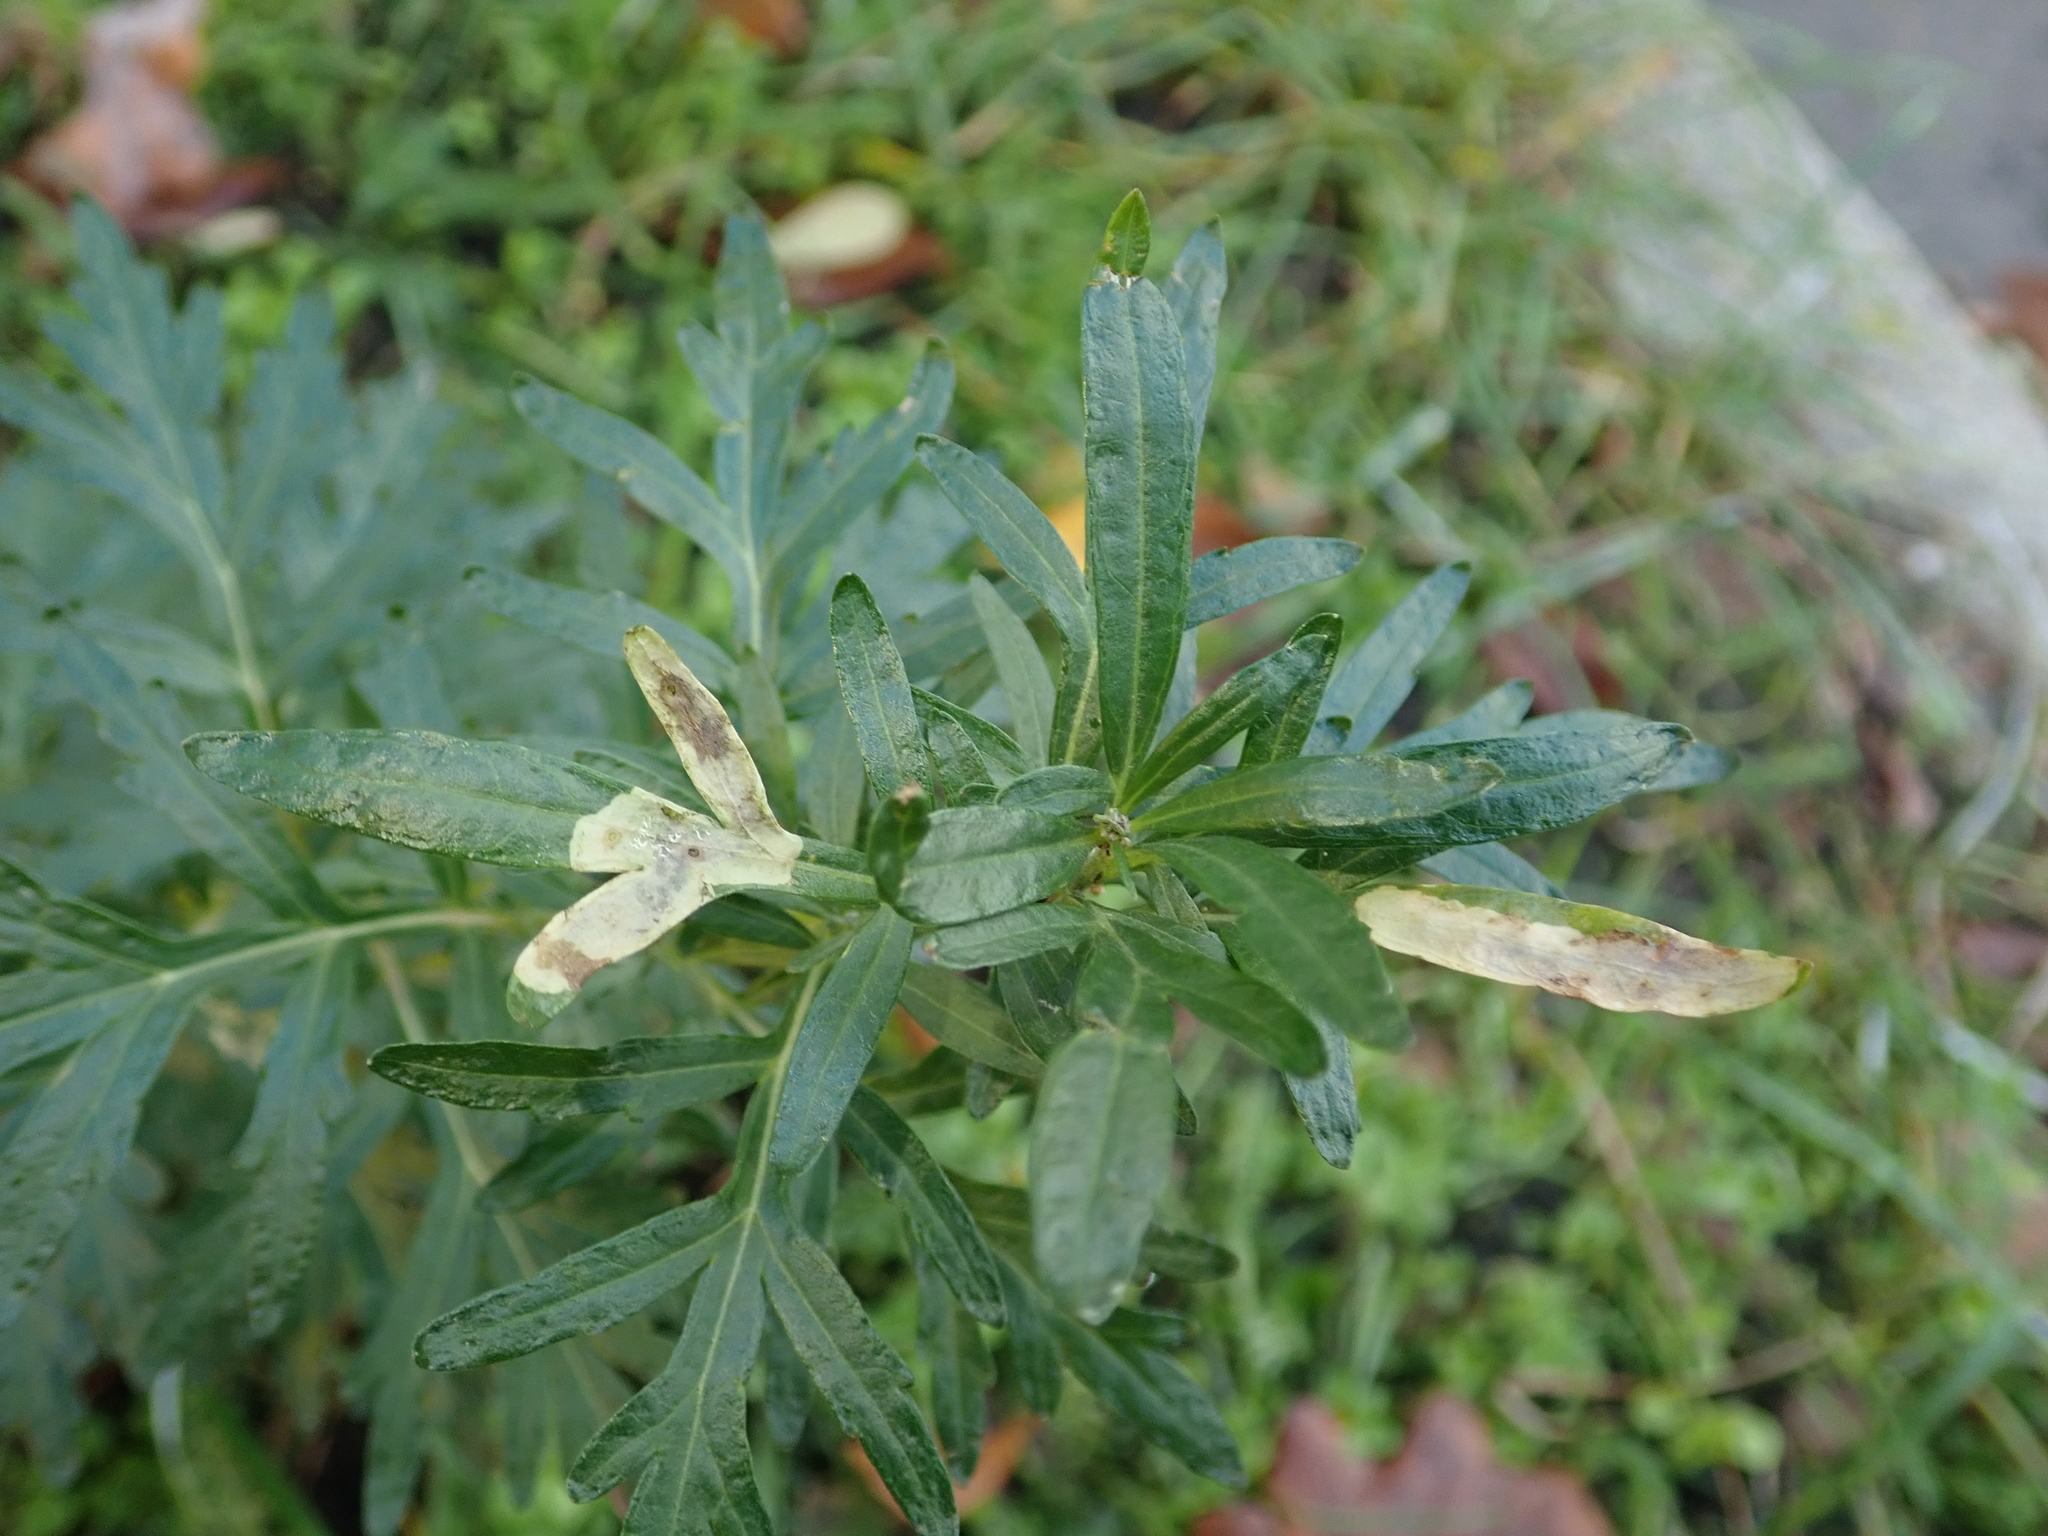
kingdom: Plantae
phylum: Tracheophyta
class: Magnoliopsida
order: Asterales
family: Asteraceae
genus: Artemisia
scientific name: Artemisia vulgaris
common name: Mugwort
